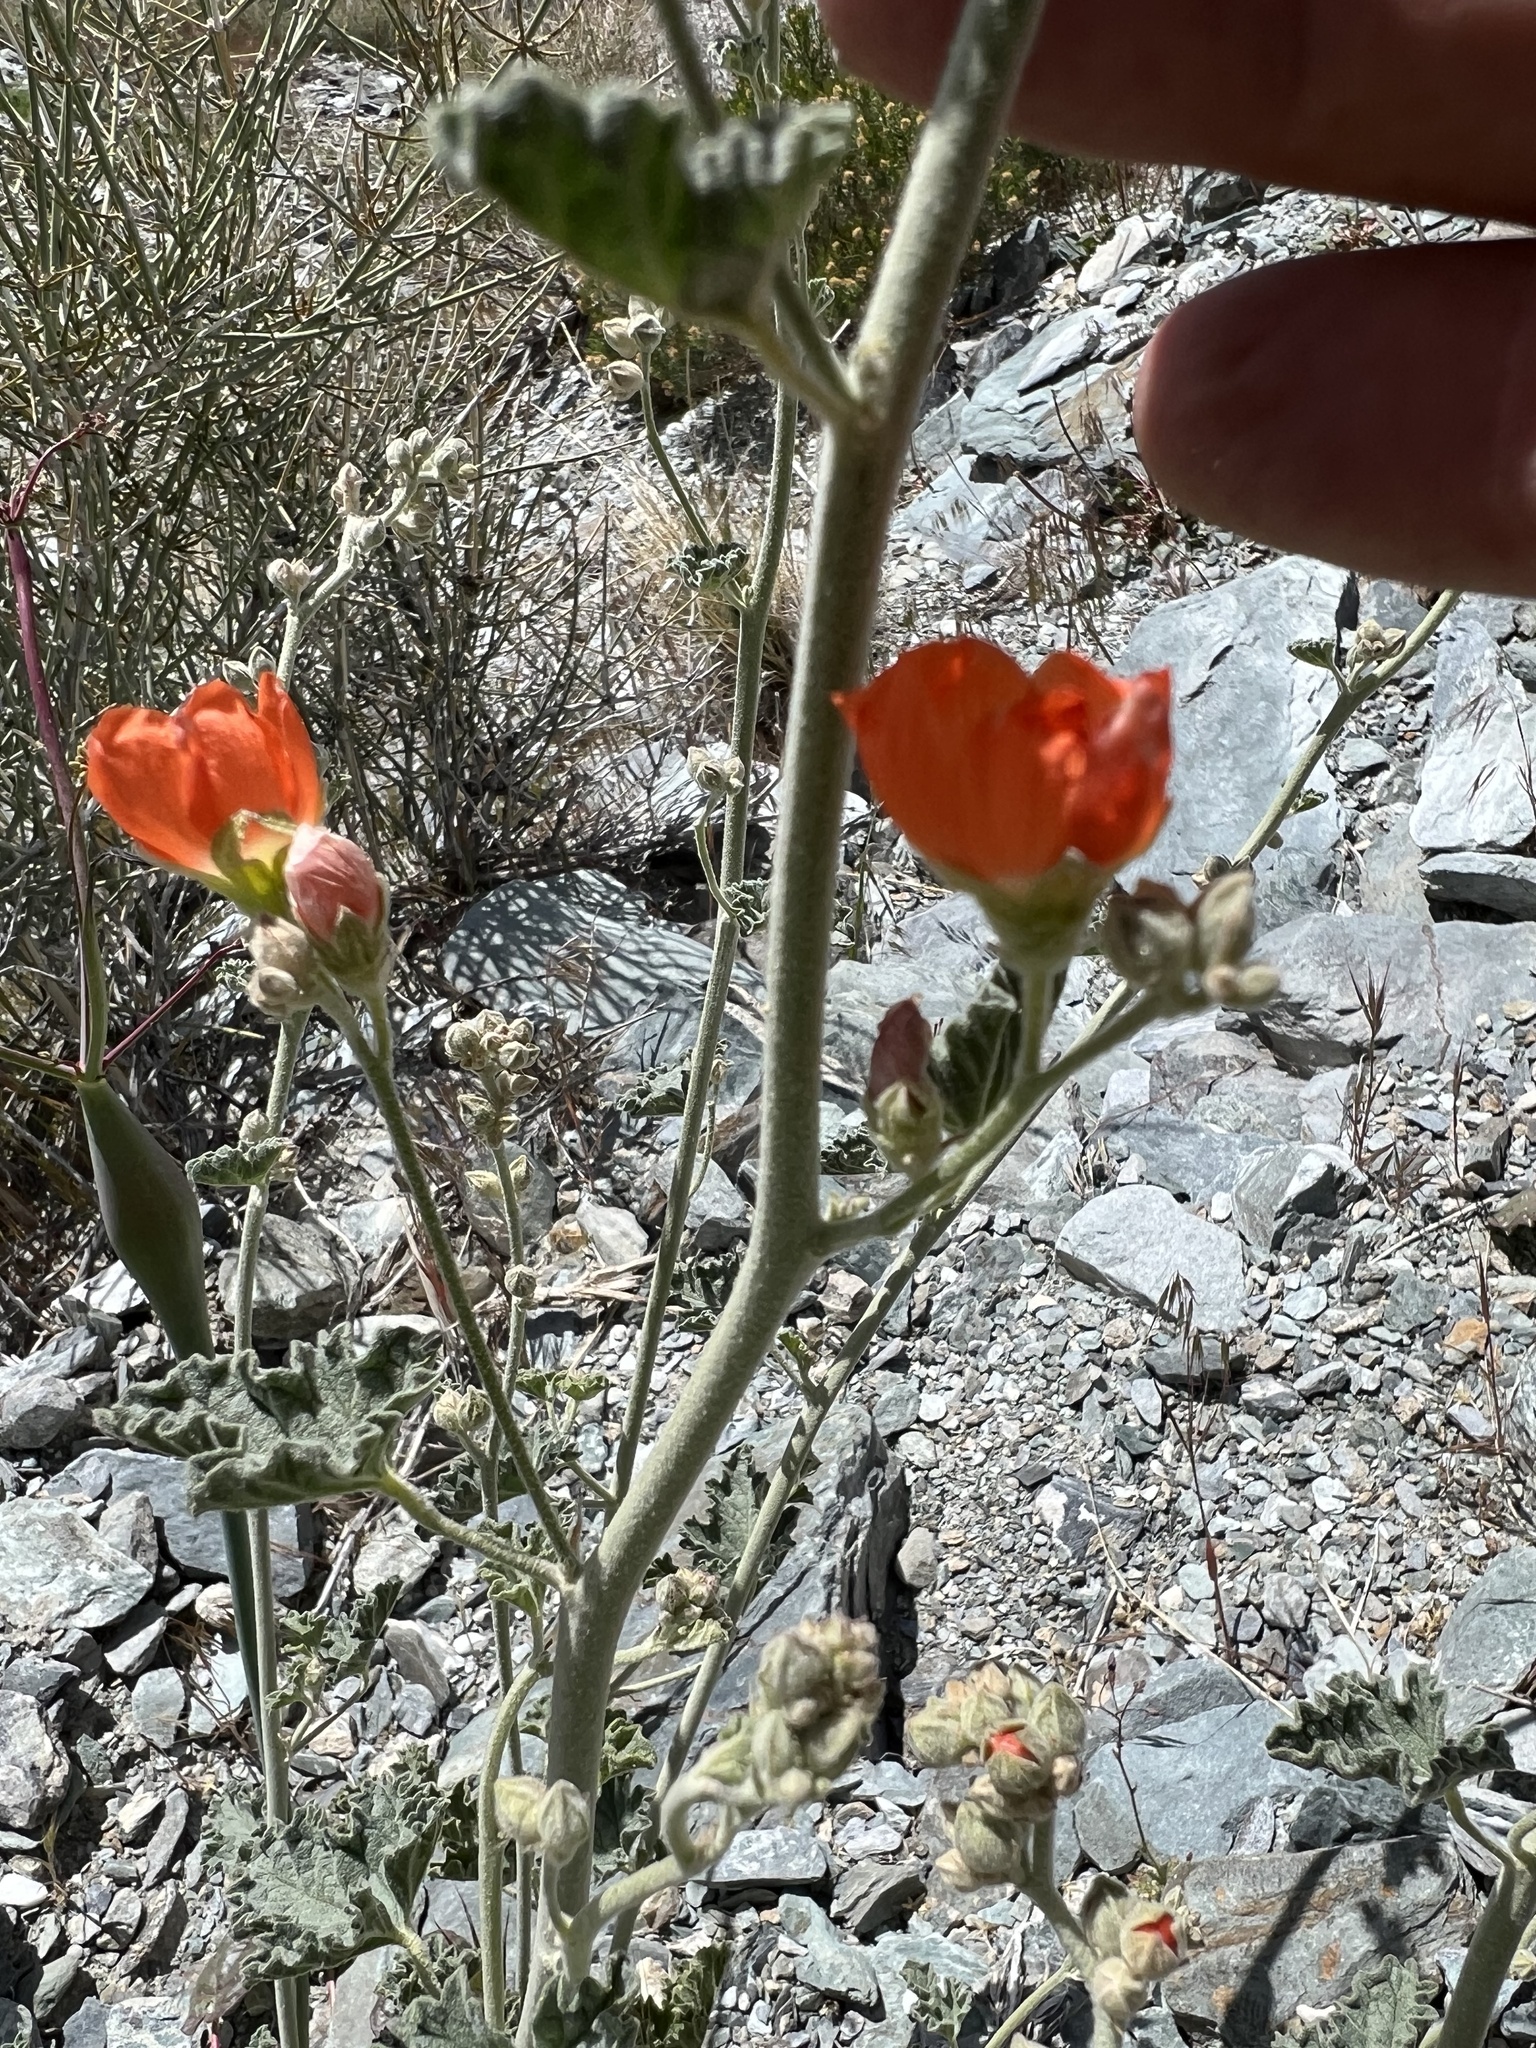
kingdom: Plantae
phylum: Tracheophyta
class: Magnoliopsida
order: Malvales
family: Malvaceae
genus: Sphaeralcea
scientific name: Sphaeralcea ambigua
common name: Apricot globe-mallow
